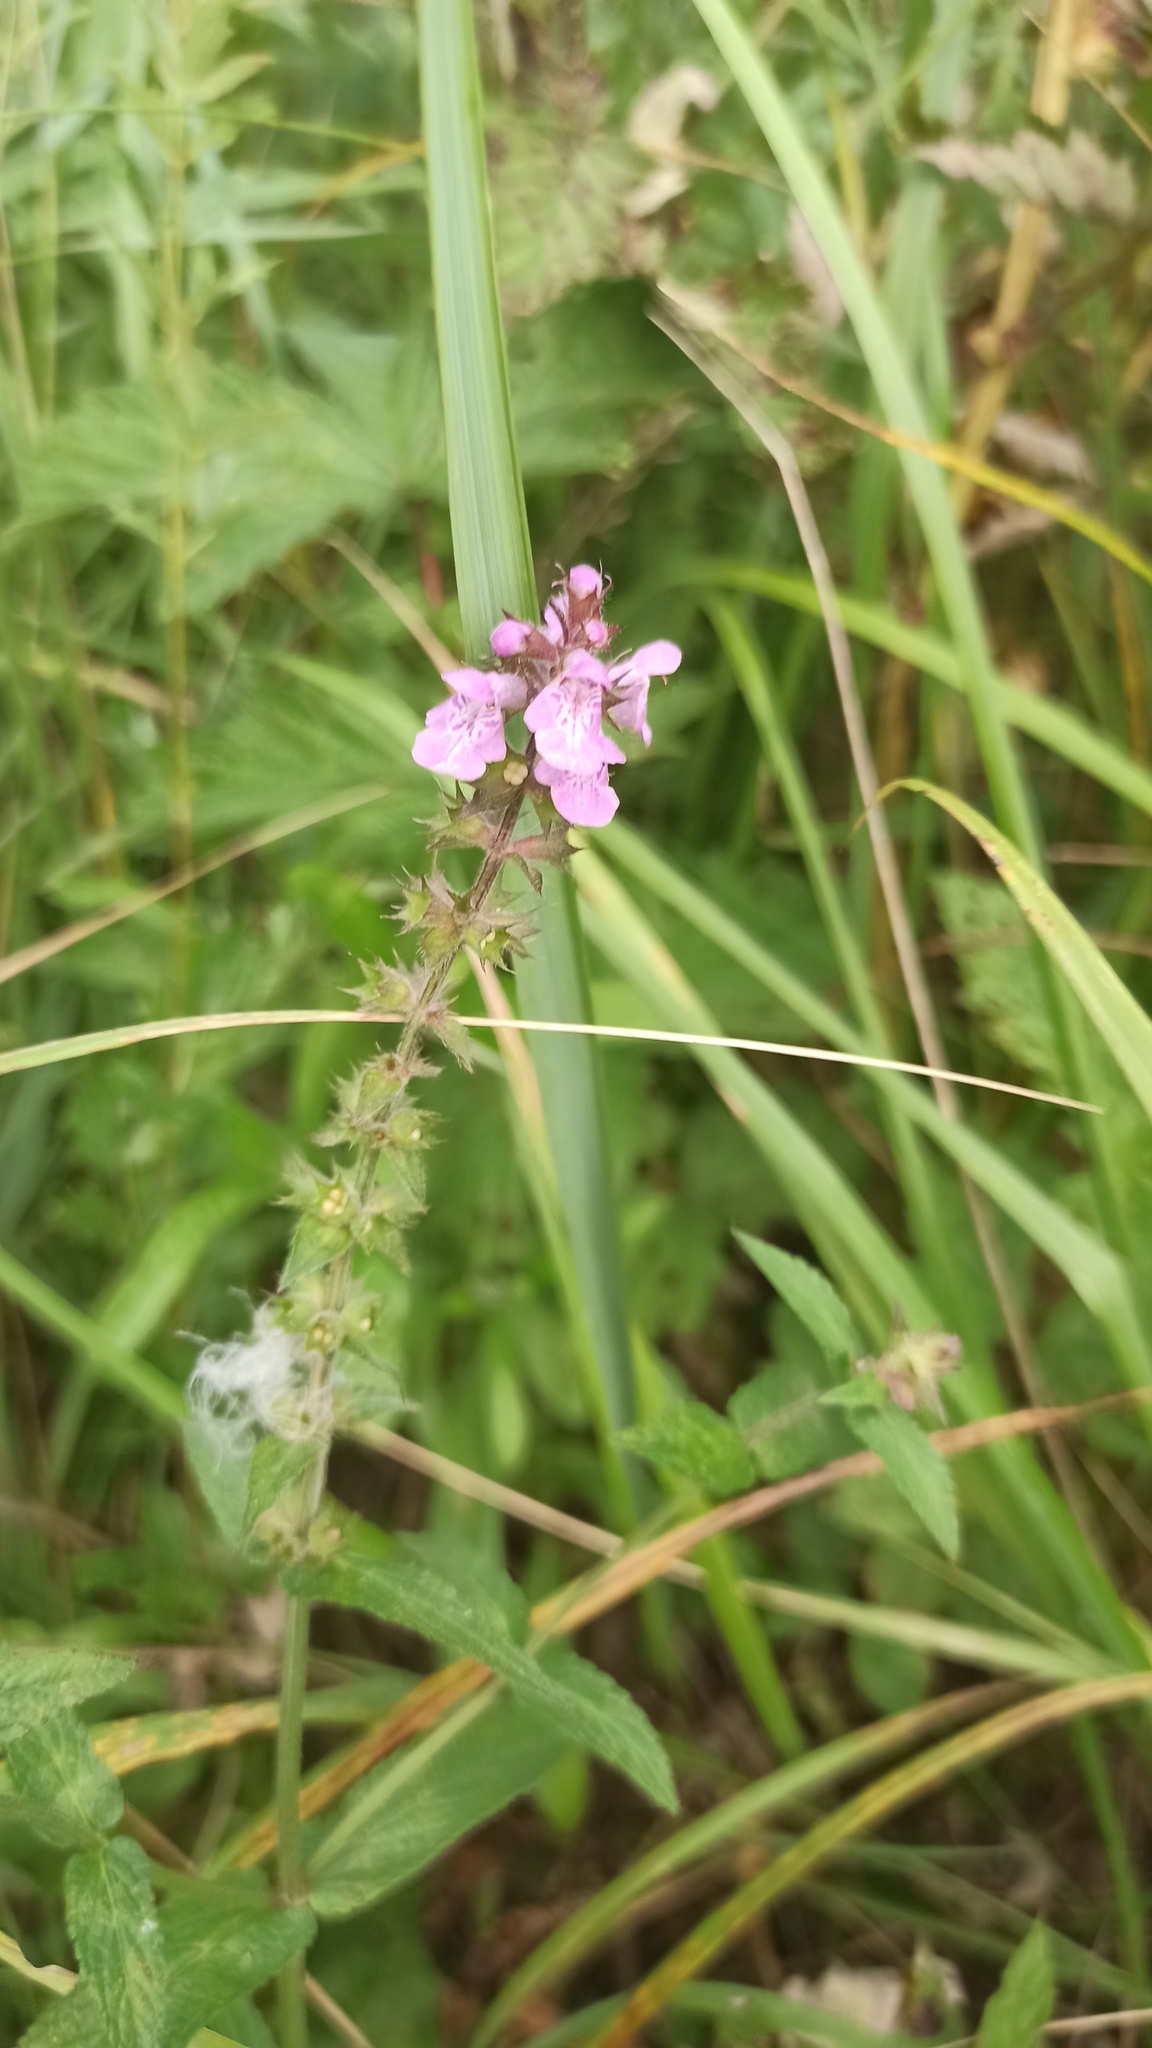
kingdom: Plantae
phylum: Tracheophyta
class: Magnoliopsida
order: Lamiales
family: Lamiaceae
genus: Stachys
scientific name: Stachys palustris
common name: Marsh woundwort
